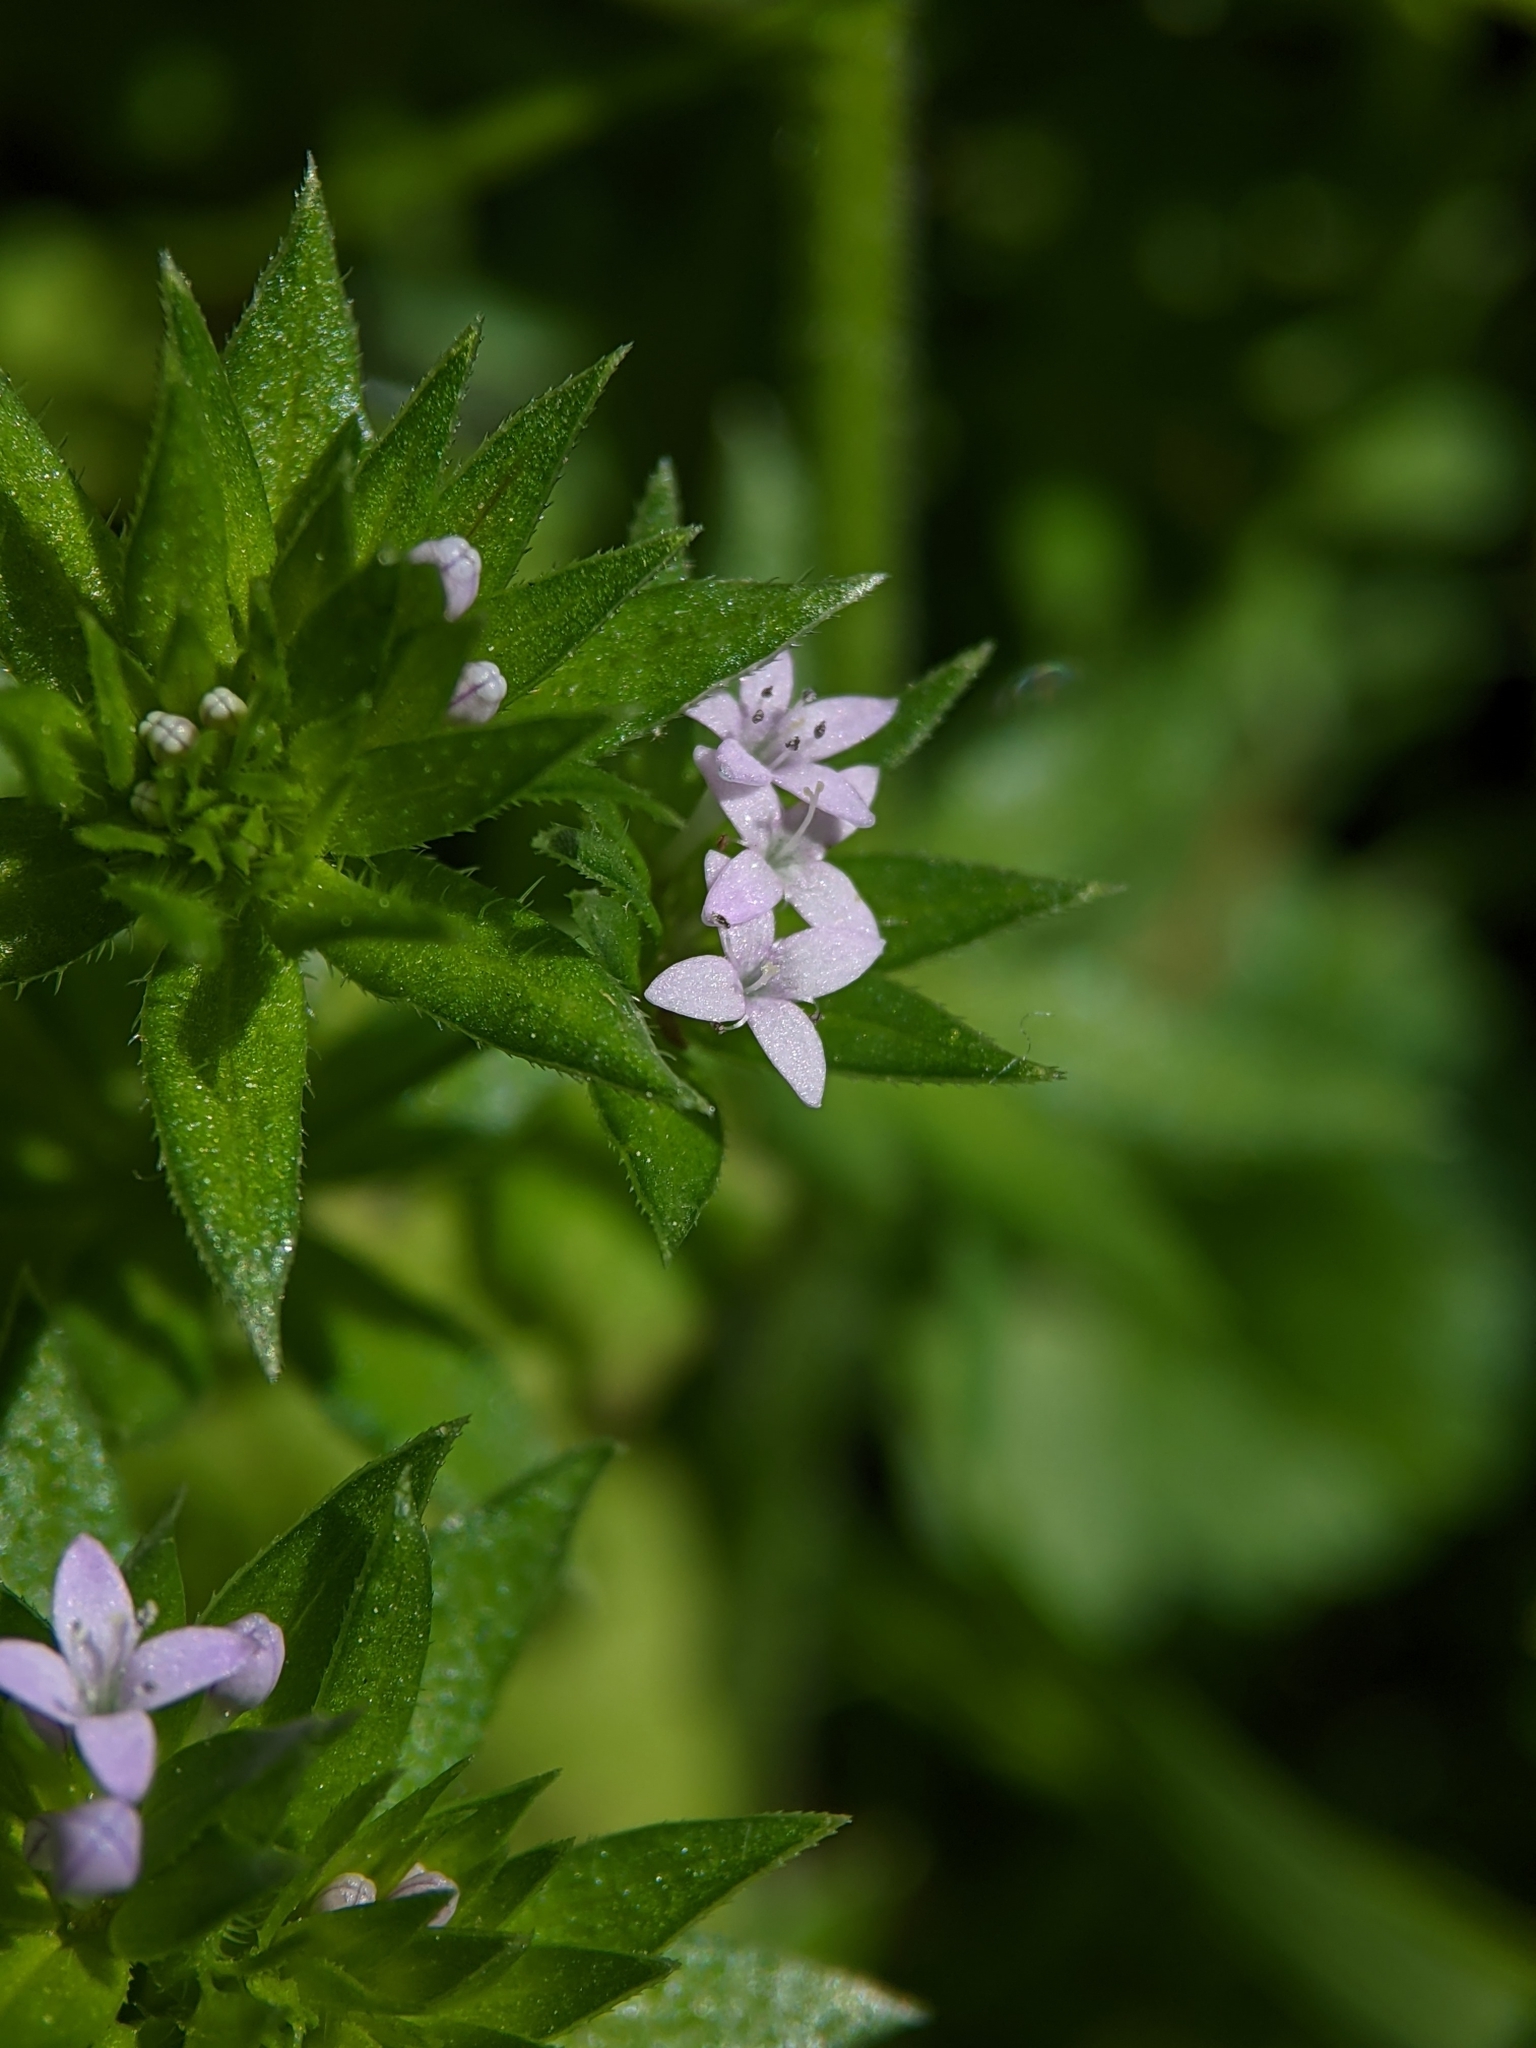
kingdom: Plantae
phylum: Tracheophyta
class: Magnoliopsida
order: Gentianales
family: Rubiaceae
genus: Sherardia
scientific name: Sherardia arvensis
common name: Field madder
